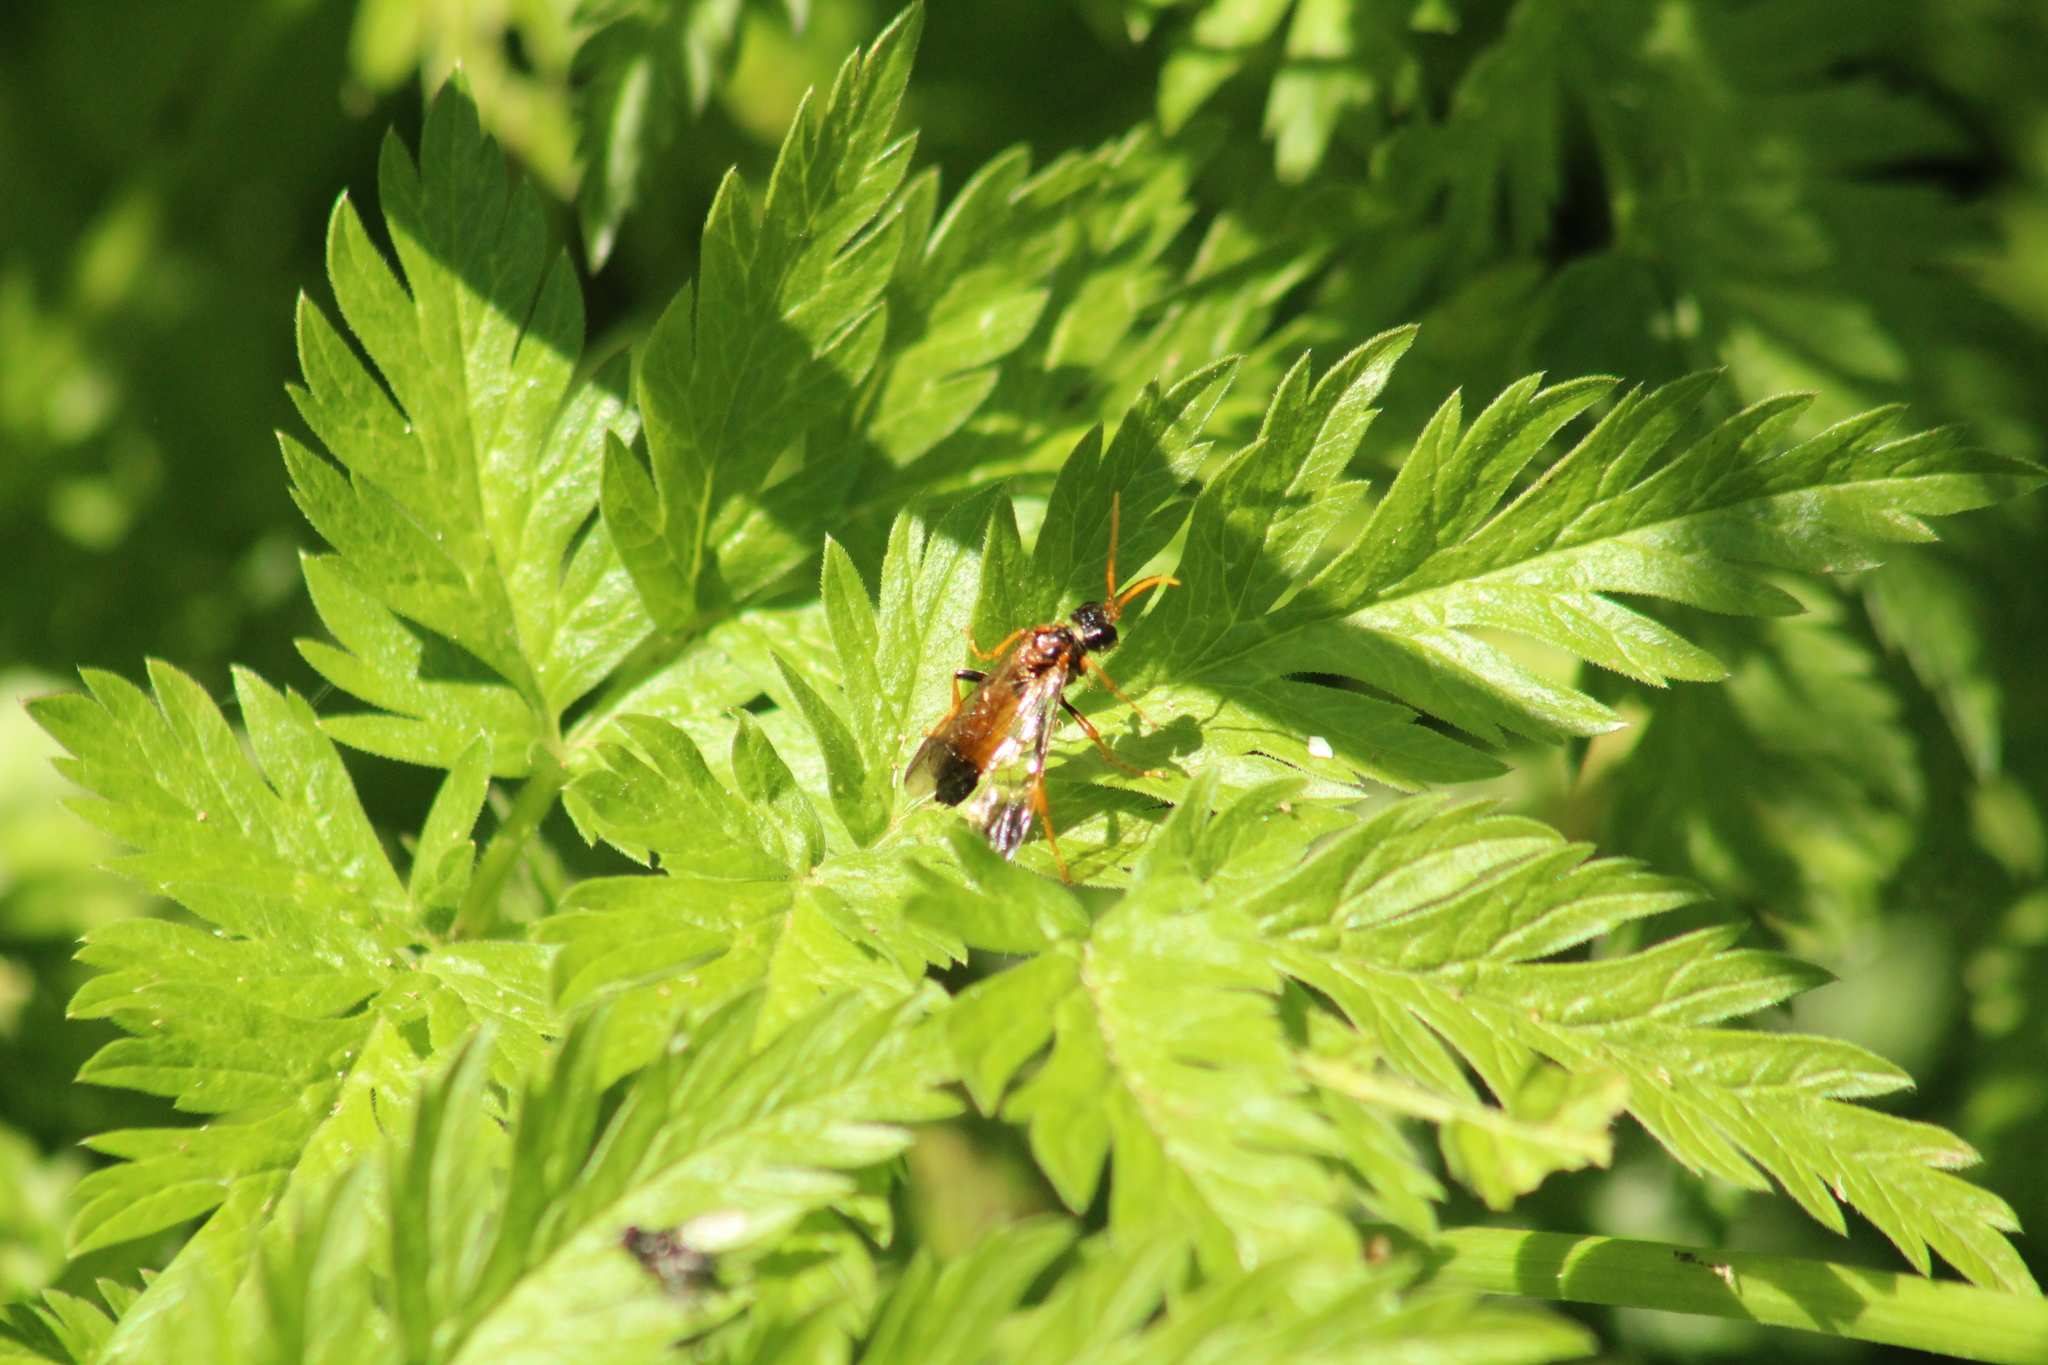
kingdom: Animalia
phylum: Arthropoda
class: Insecta
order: Hymenoptera
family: Tenthredinidae
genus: Tenthredo
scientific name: Tenthredo campestris
